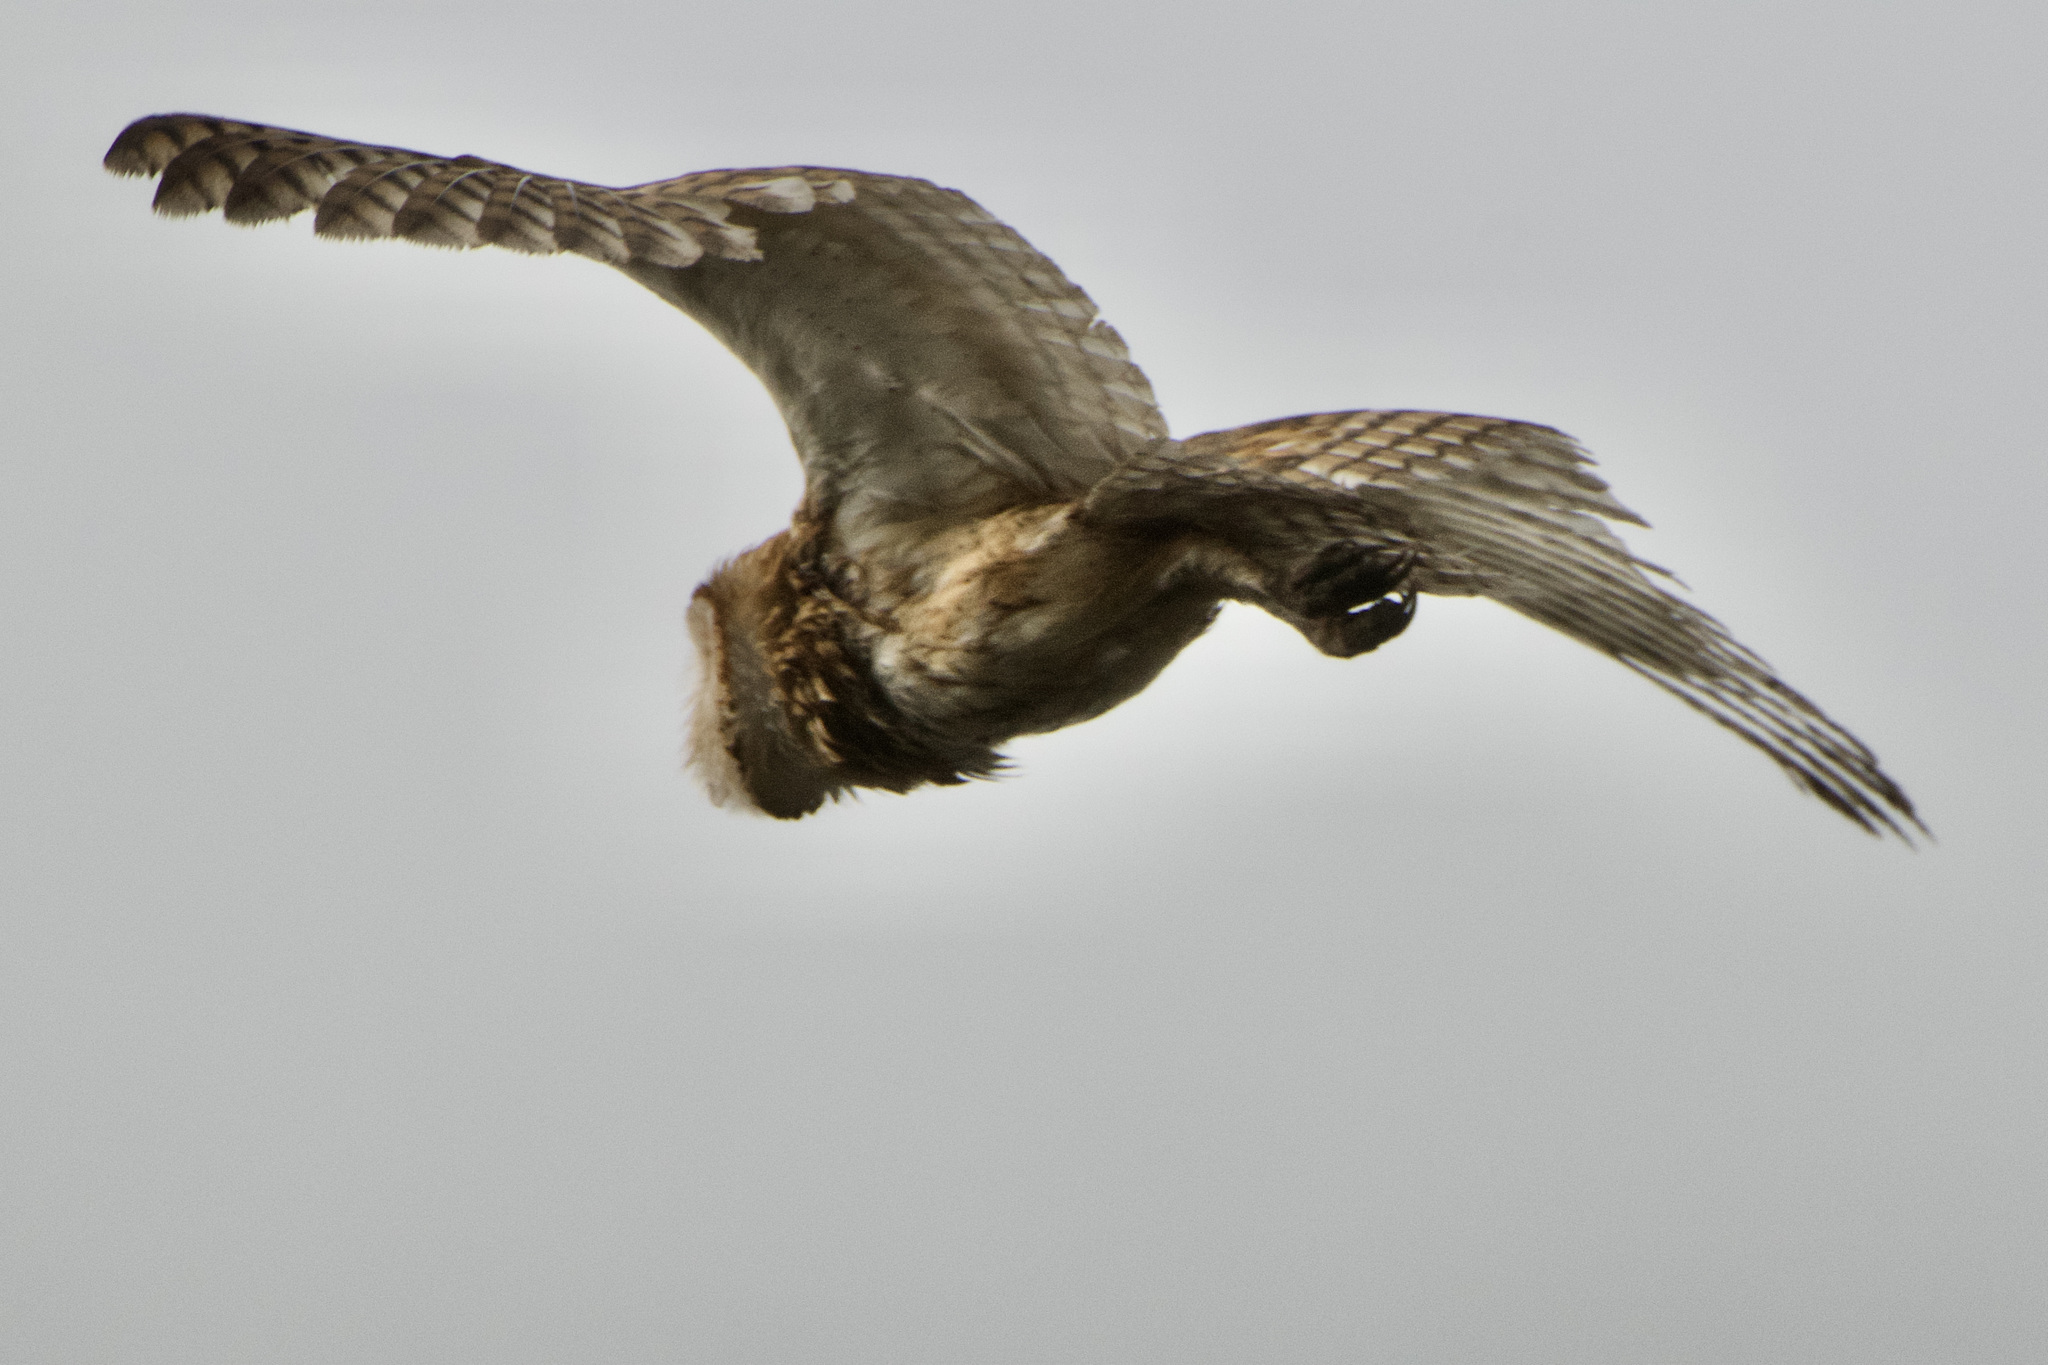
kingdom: Animalia
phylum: Chordata
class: Aves
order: Strigiformes
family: Tytonidae
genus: Tyto
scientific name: Tyto alba
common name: Barn owl
